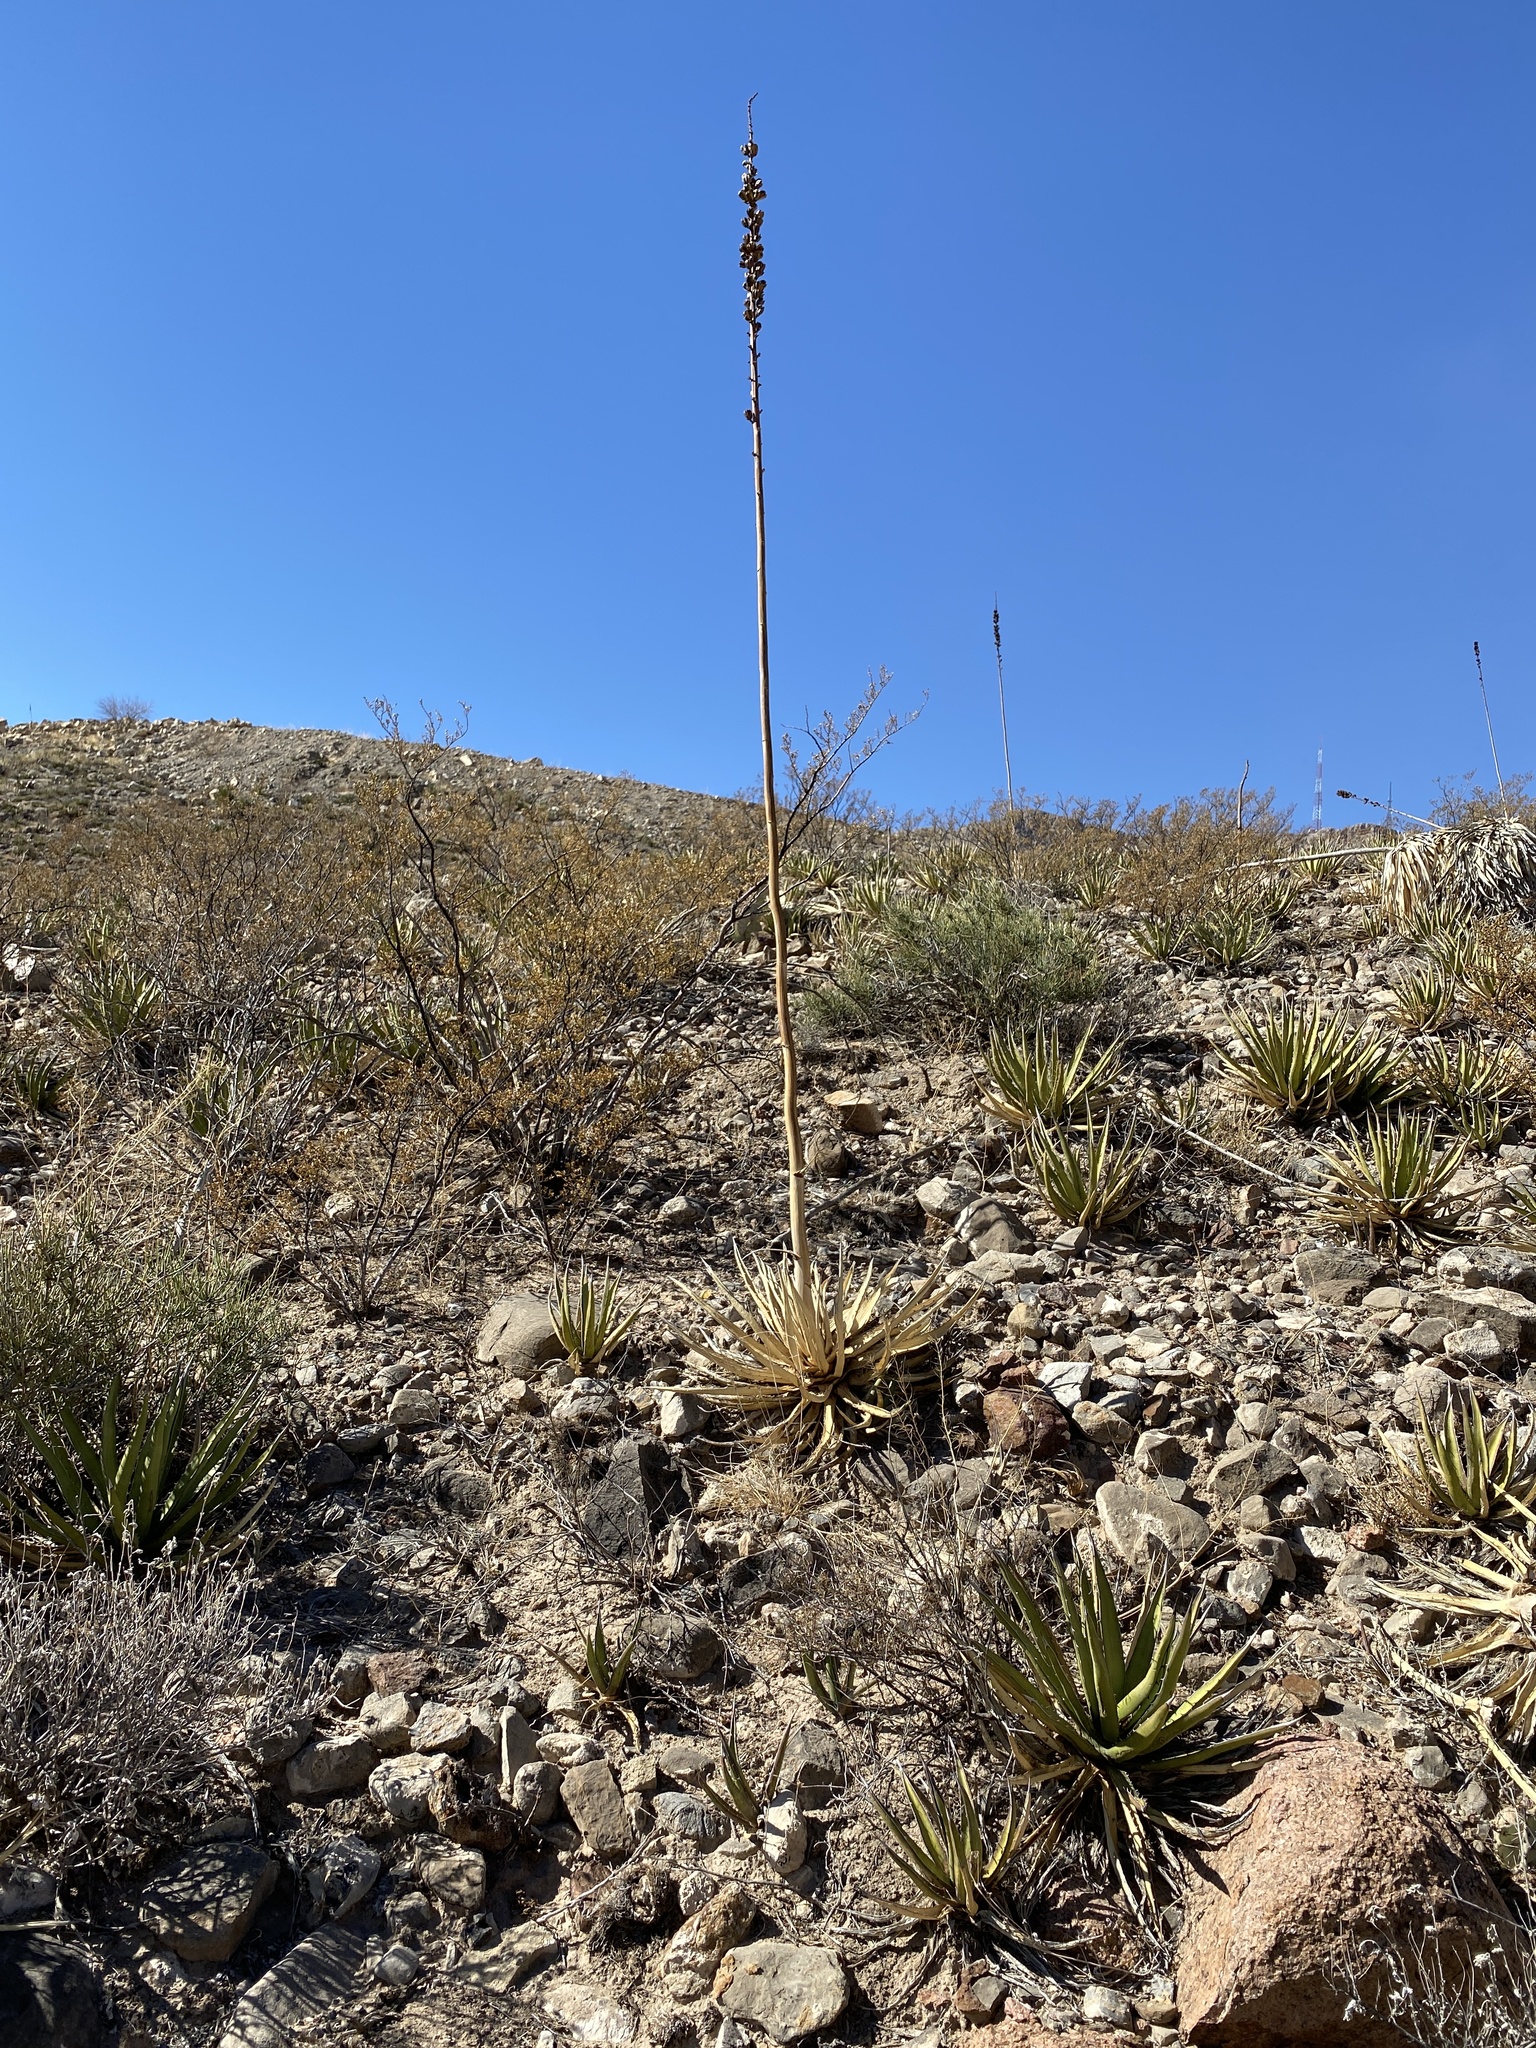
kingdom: Plantae
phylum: Tracheophyta
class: Liliopsida
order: Asparagales
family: Asparagaceae
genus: Agave
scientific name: Agave lechuguilla
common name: Lecheguilla agave
